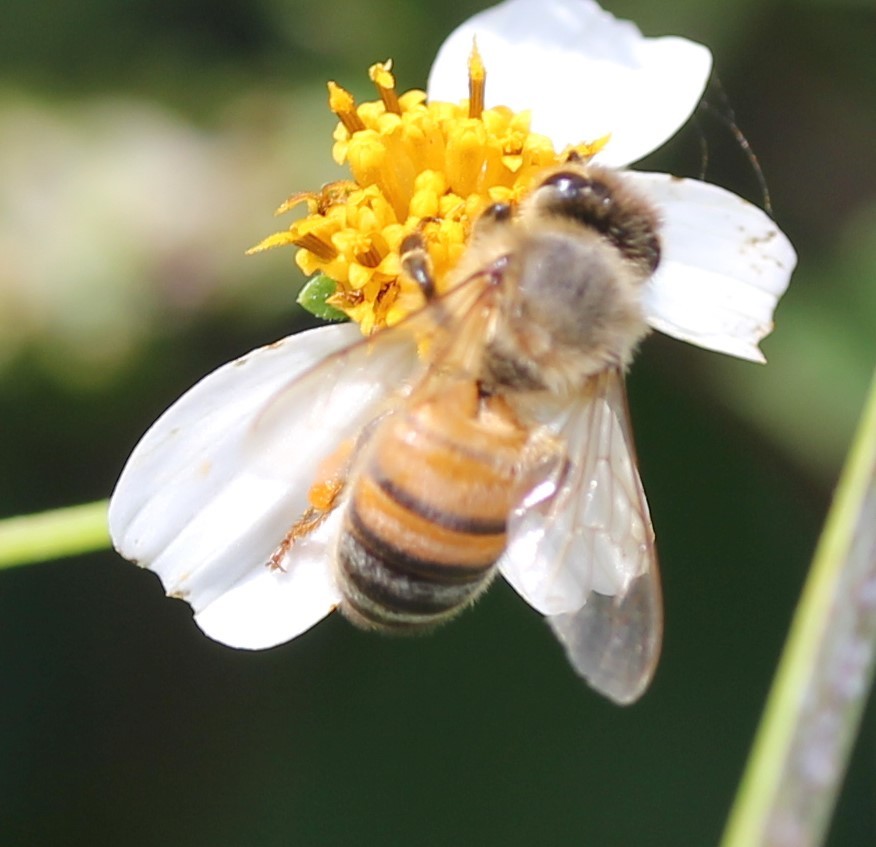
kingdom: Animalia
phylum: Arthropoda
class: Insecta
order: Hymenoptera
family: Apidae
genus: Apis
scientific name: Apis mellifera
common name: Honey bee
